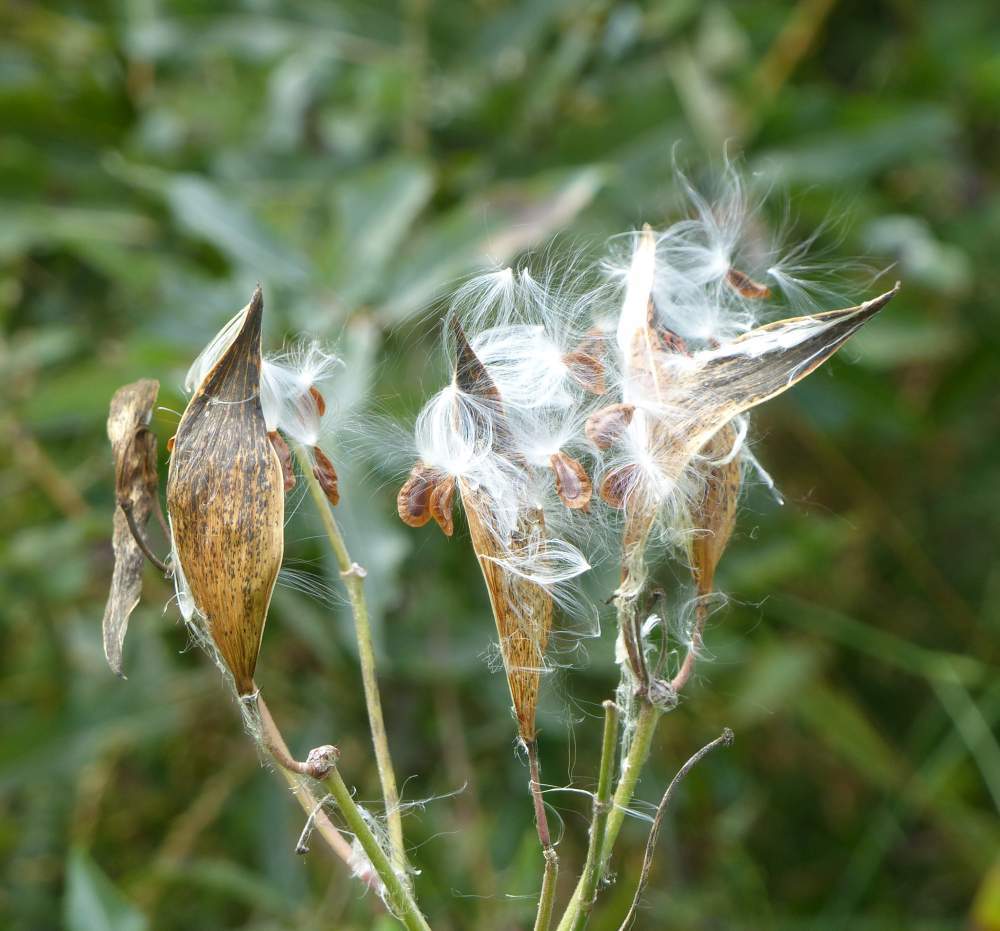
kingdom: Plantae
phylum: Tracheophyta
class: Magnoliopsida
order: Gentianales
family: Apocynaceae
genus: Asclepias
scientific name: Asclepias incarnata
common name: Swamp milkweed
